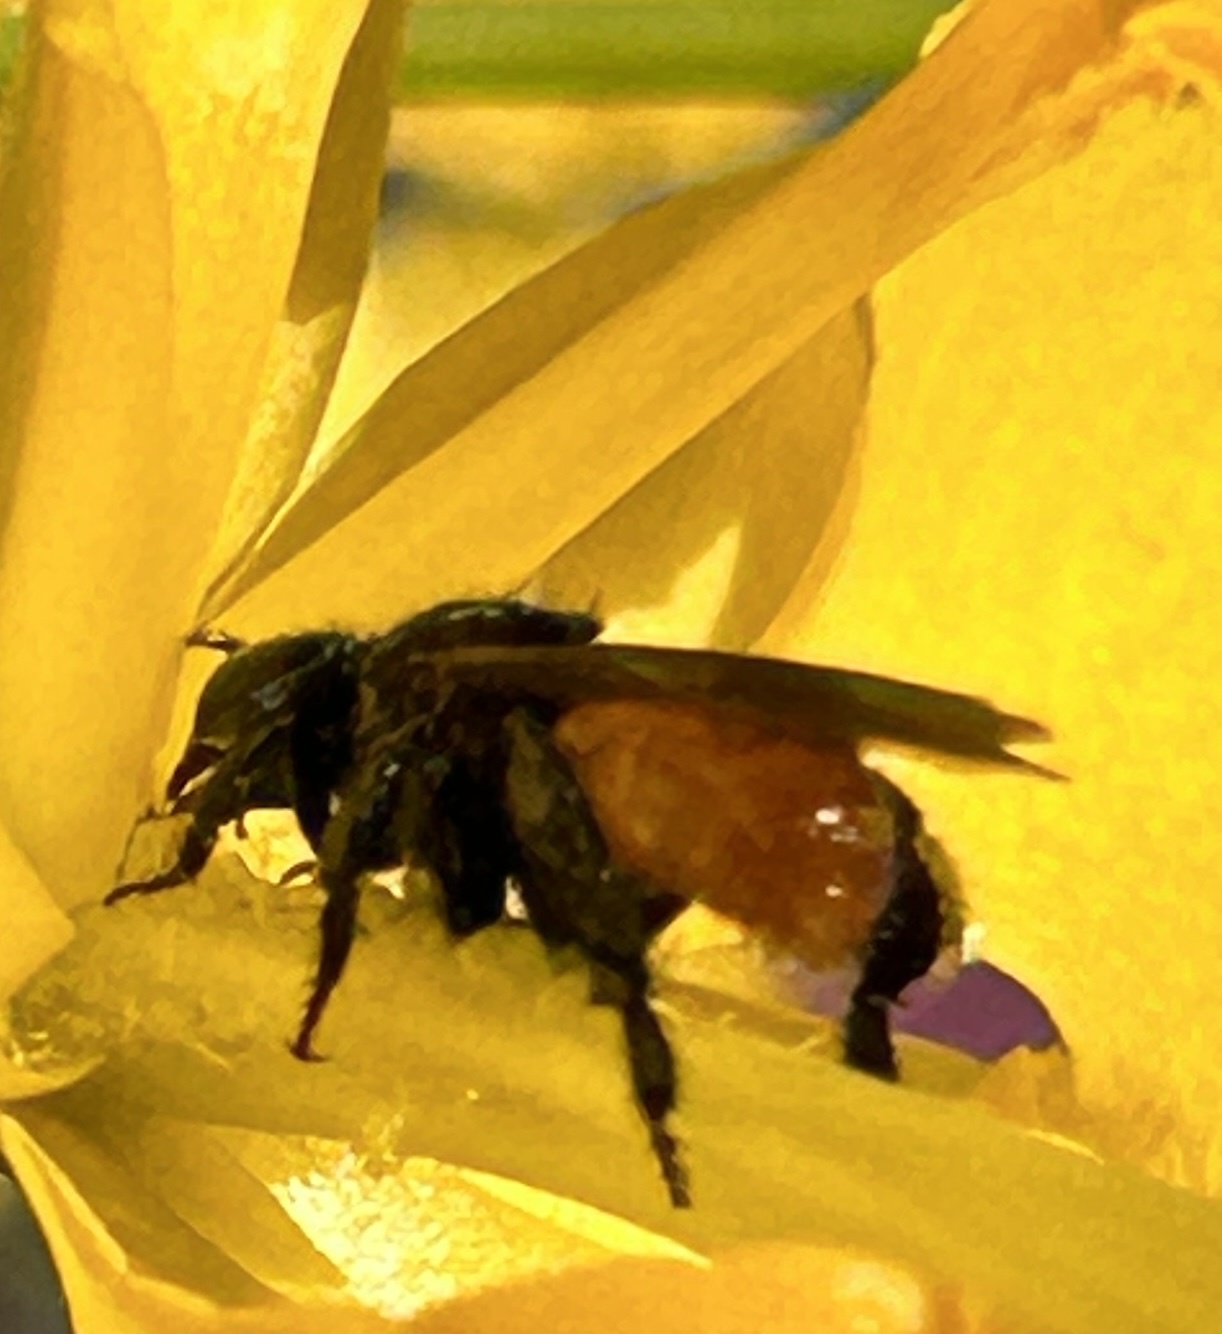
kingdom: Animalia
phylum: Arthropoda
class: Insecta
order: Hymenoptera
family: Apidae
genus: Trigona
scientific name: Trigona fulviventris
